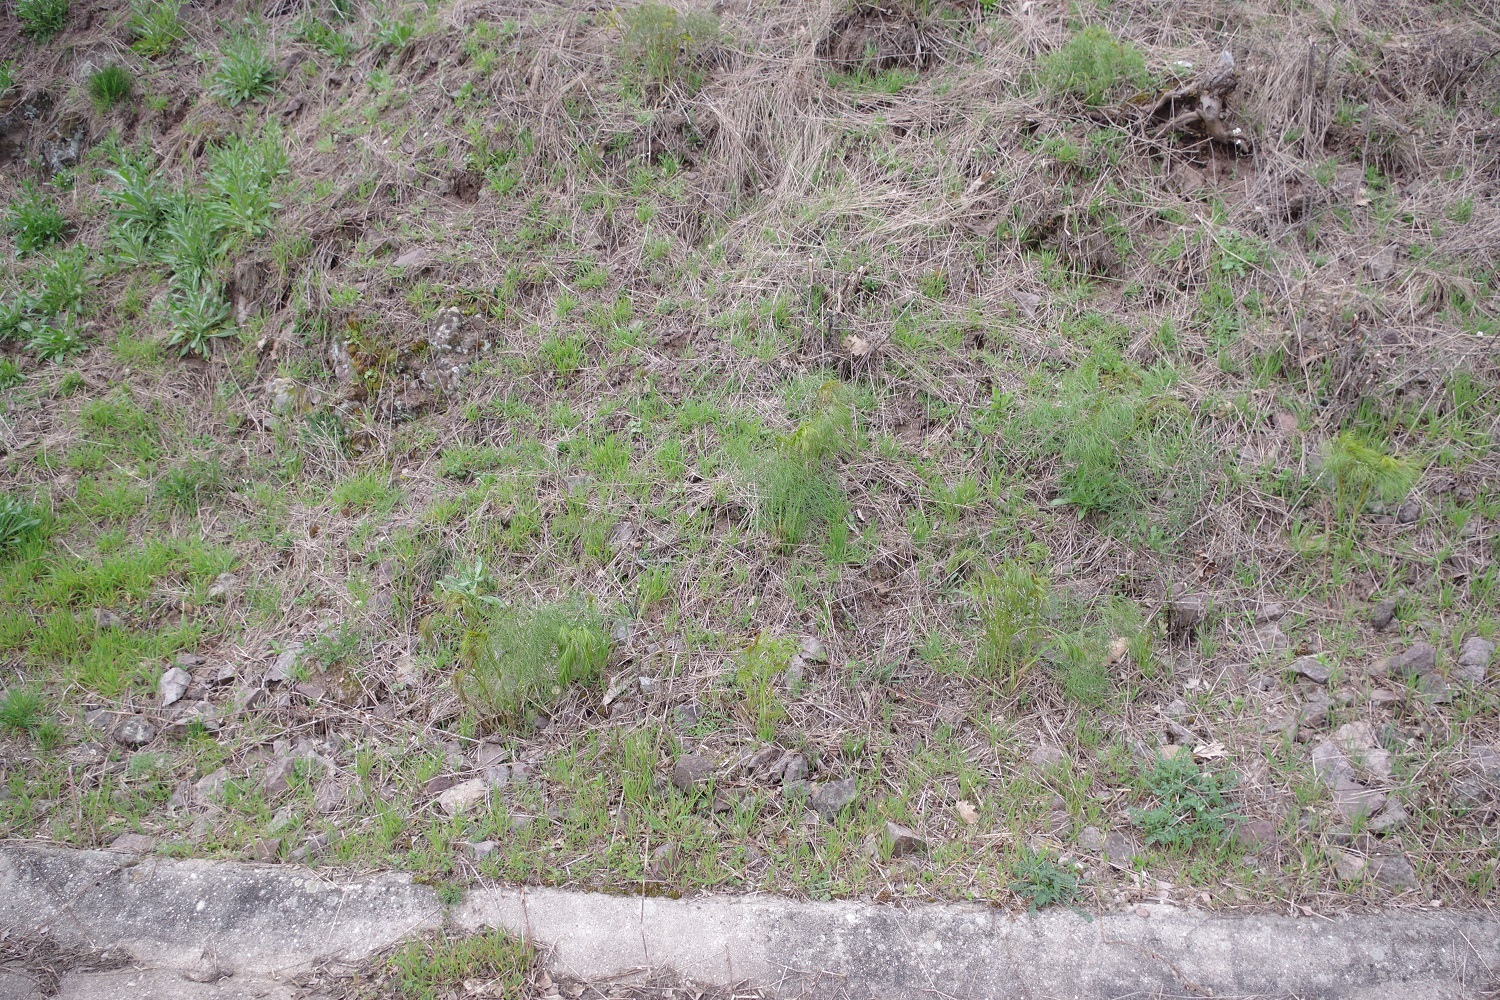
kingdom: Plantae
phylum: Tracheophyta
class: Magnoliopsida
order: Apiales
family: Apiaceae
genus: Peucedanum
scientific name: Peucedanum officinale
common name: Sulphurweed
